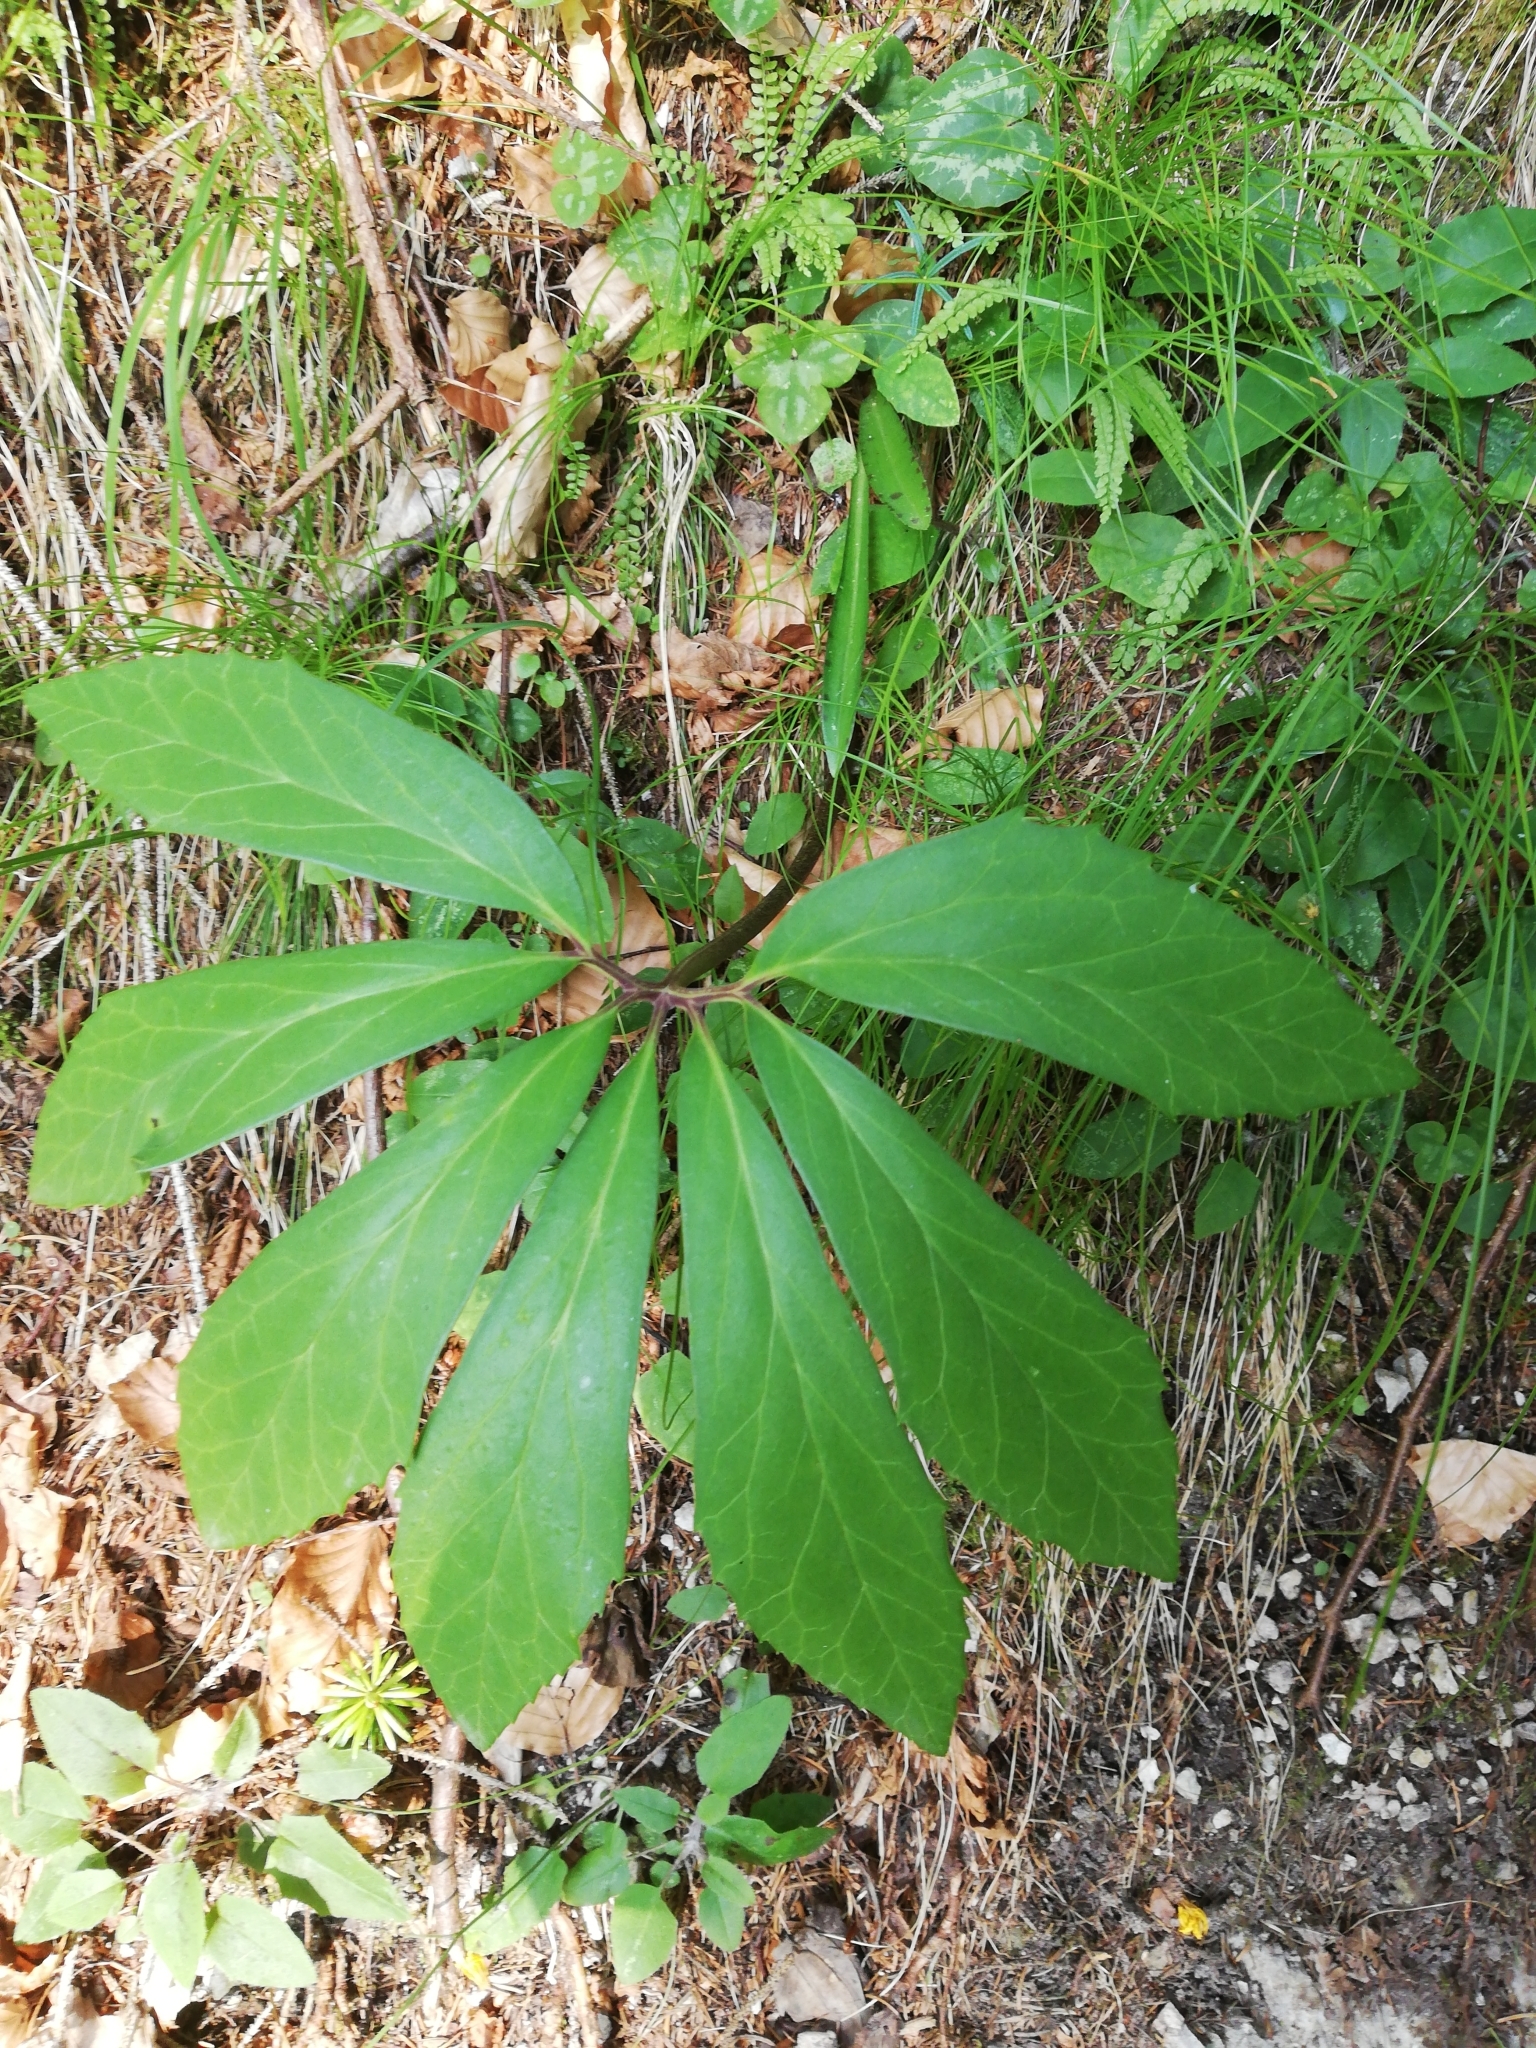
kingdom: Plantae
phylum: Tracheophyta
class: Magnoliopsida
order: Ranunculales
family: Ranunculaceae
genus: Helleborus
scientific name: Helleborus niger
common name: Black hellebore
